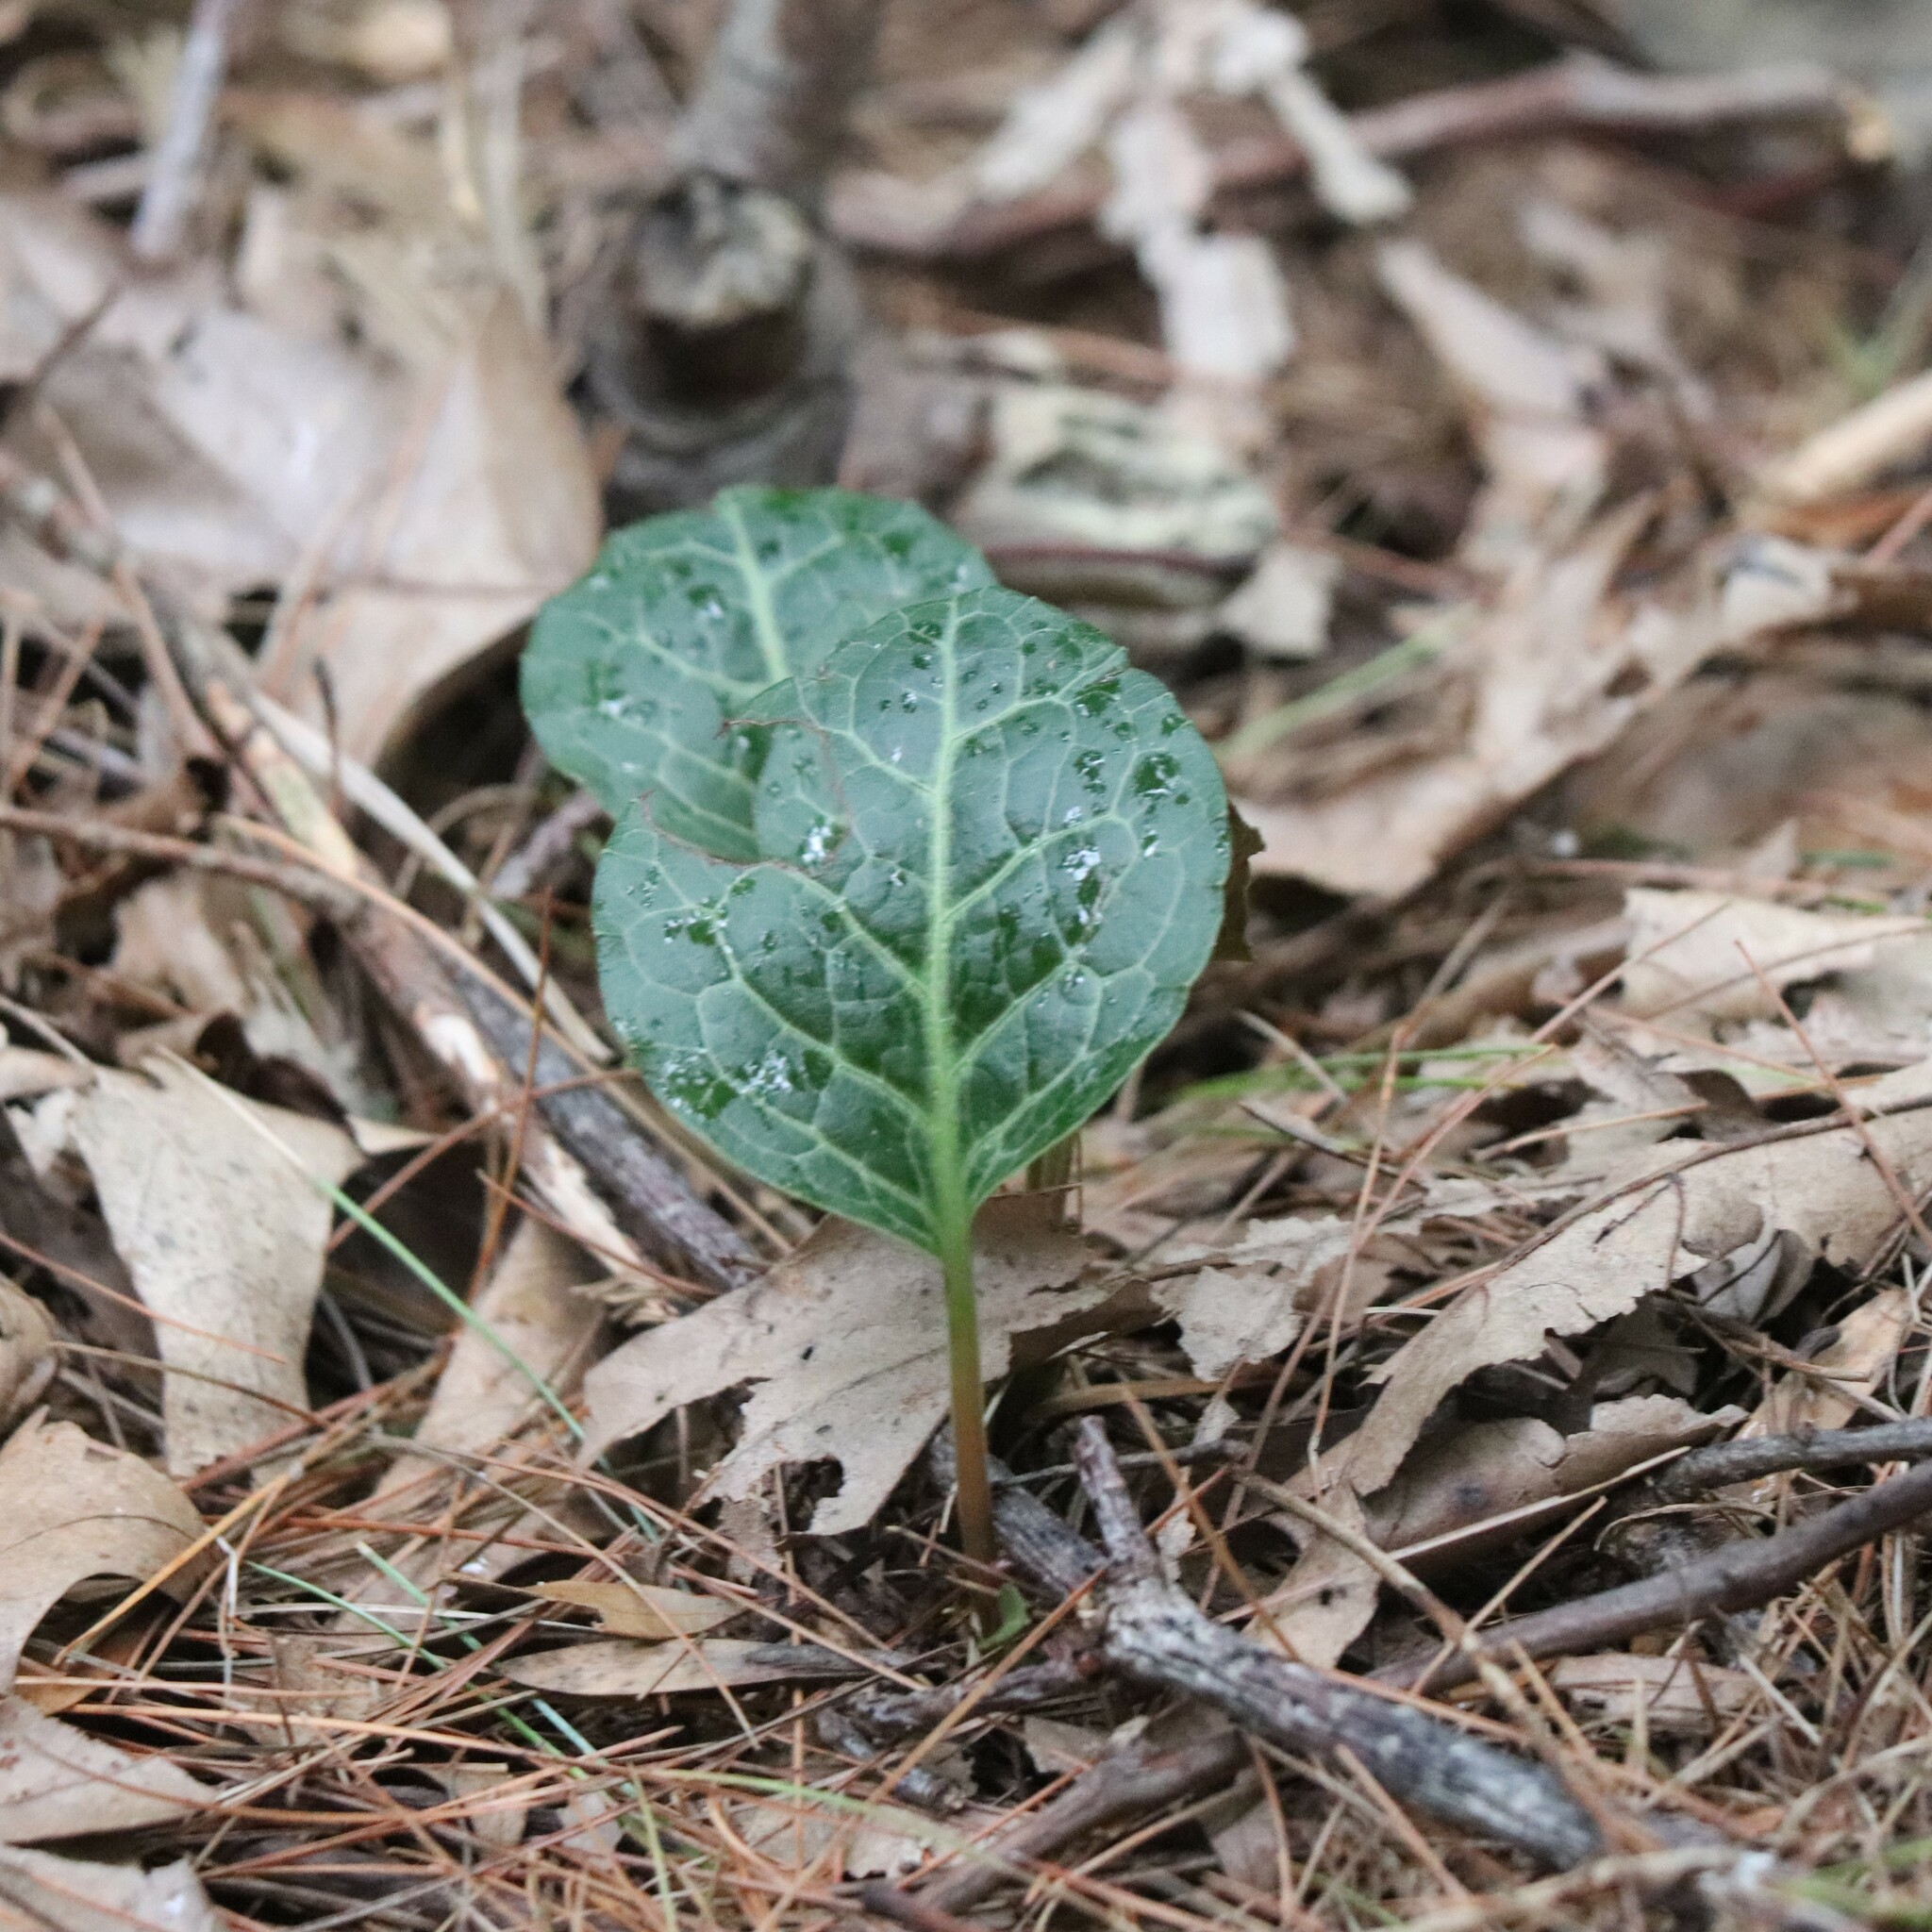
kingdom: Plantae
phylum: Tracheophyta
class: Magnoliopsida
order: Ericales
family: Ericaceae
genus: Pyrola
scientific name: Pyrola americana
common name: American wintergreen
